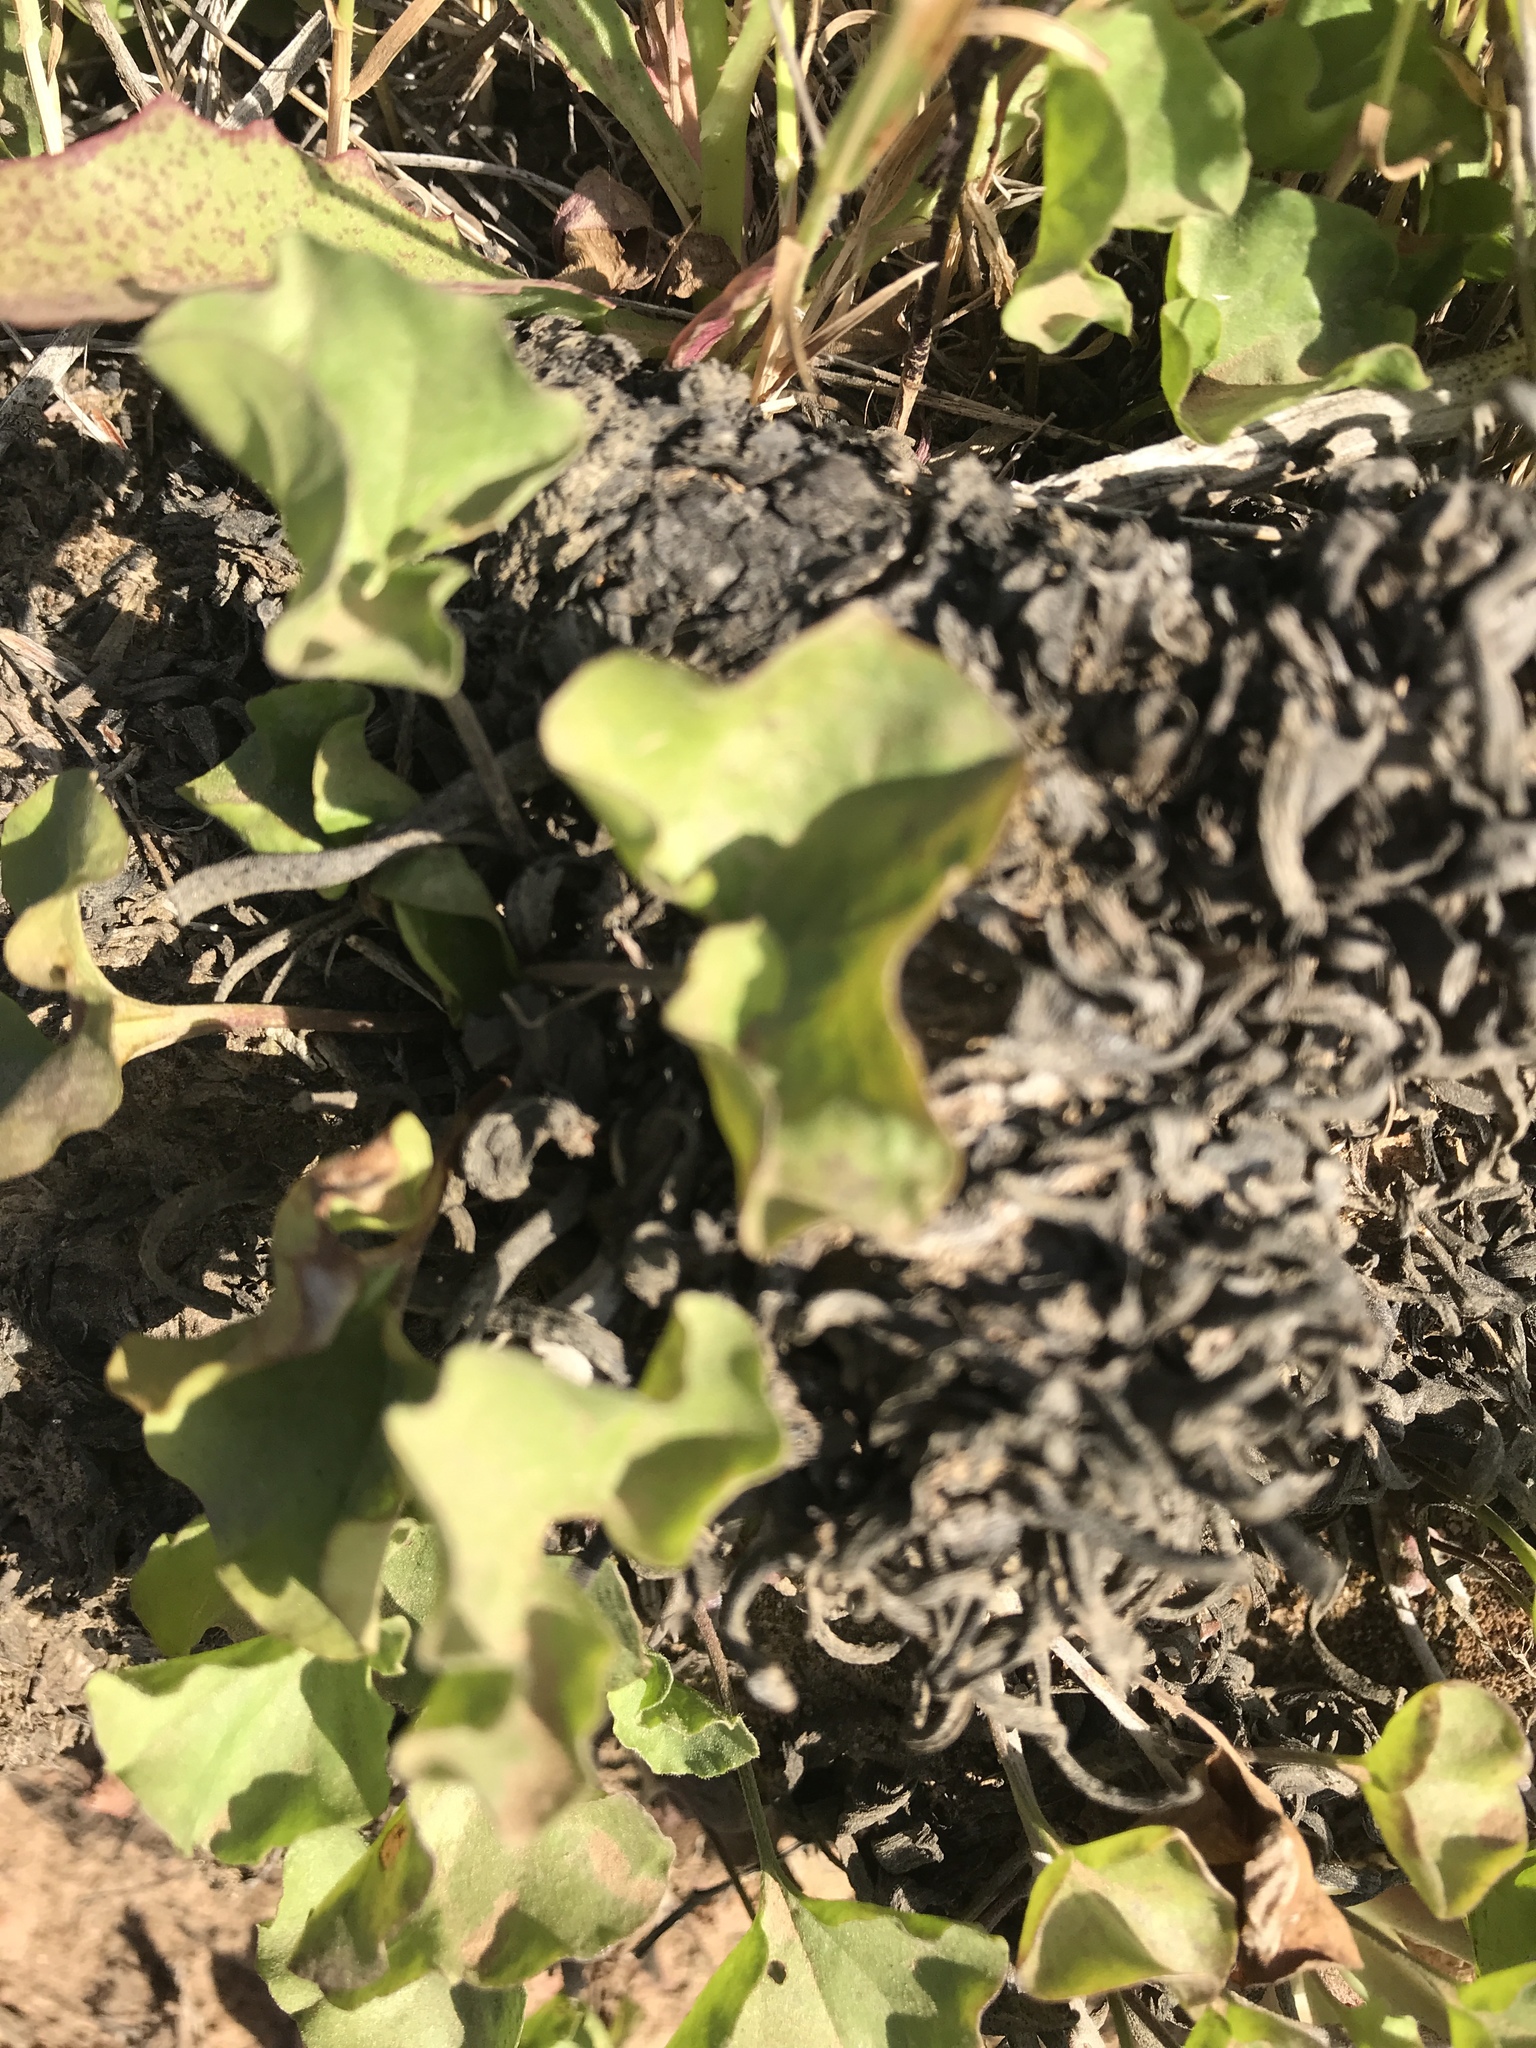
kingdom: Plantae
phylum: Tracheophyta
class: Magnoliopsida
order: Solanales
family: Convolvulaceae
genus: Dichondra
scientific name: Dichondra occidentalis
